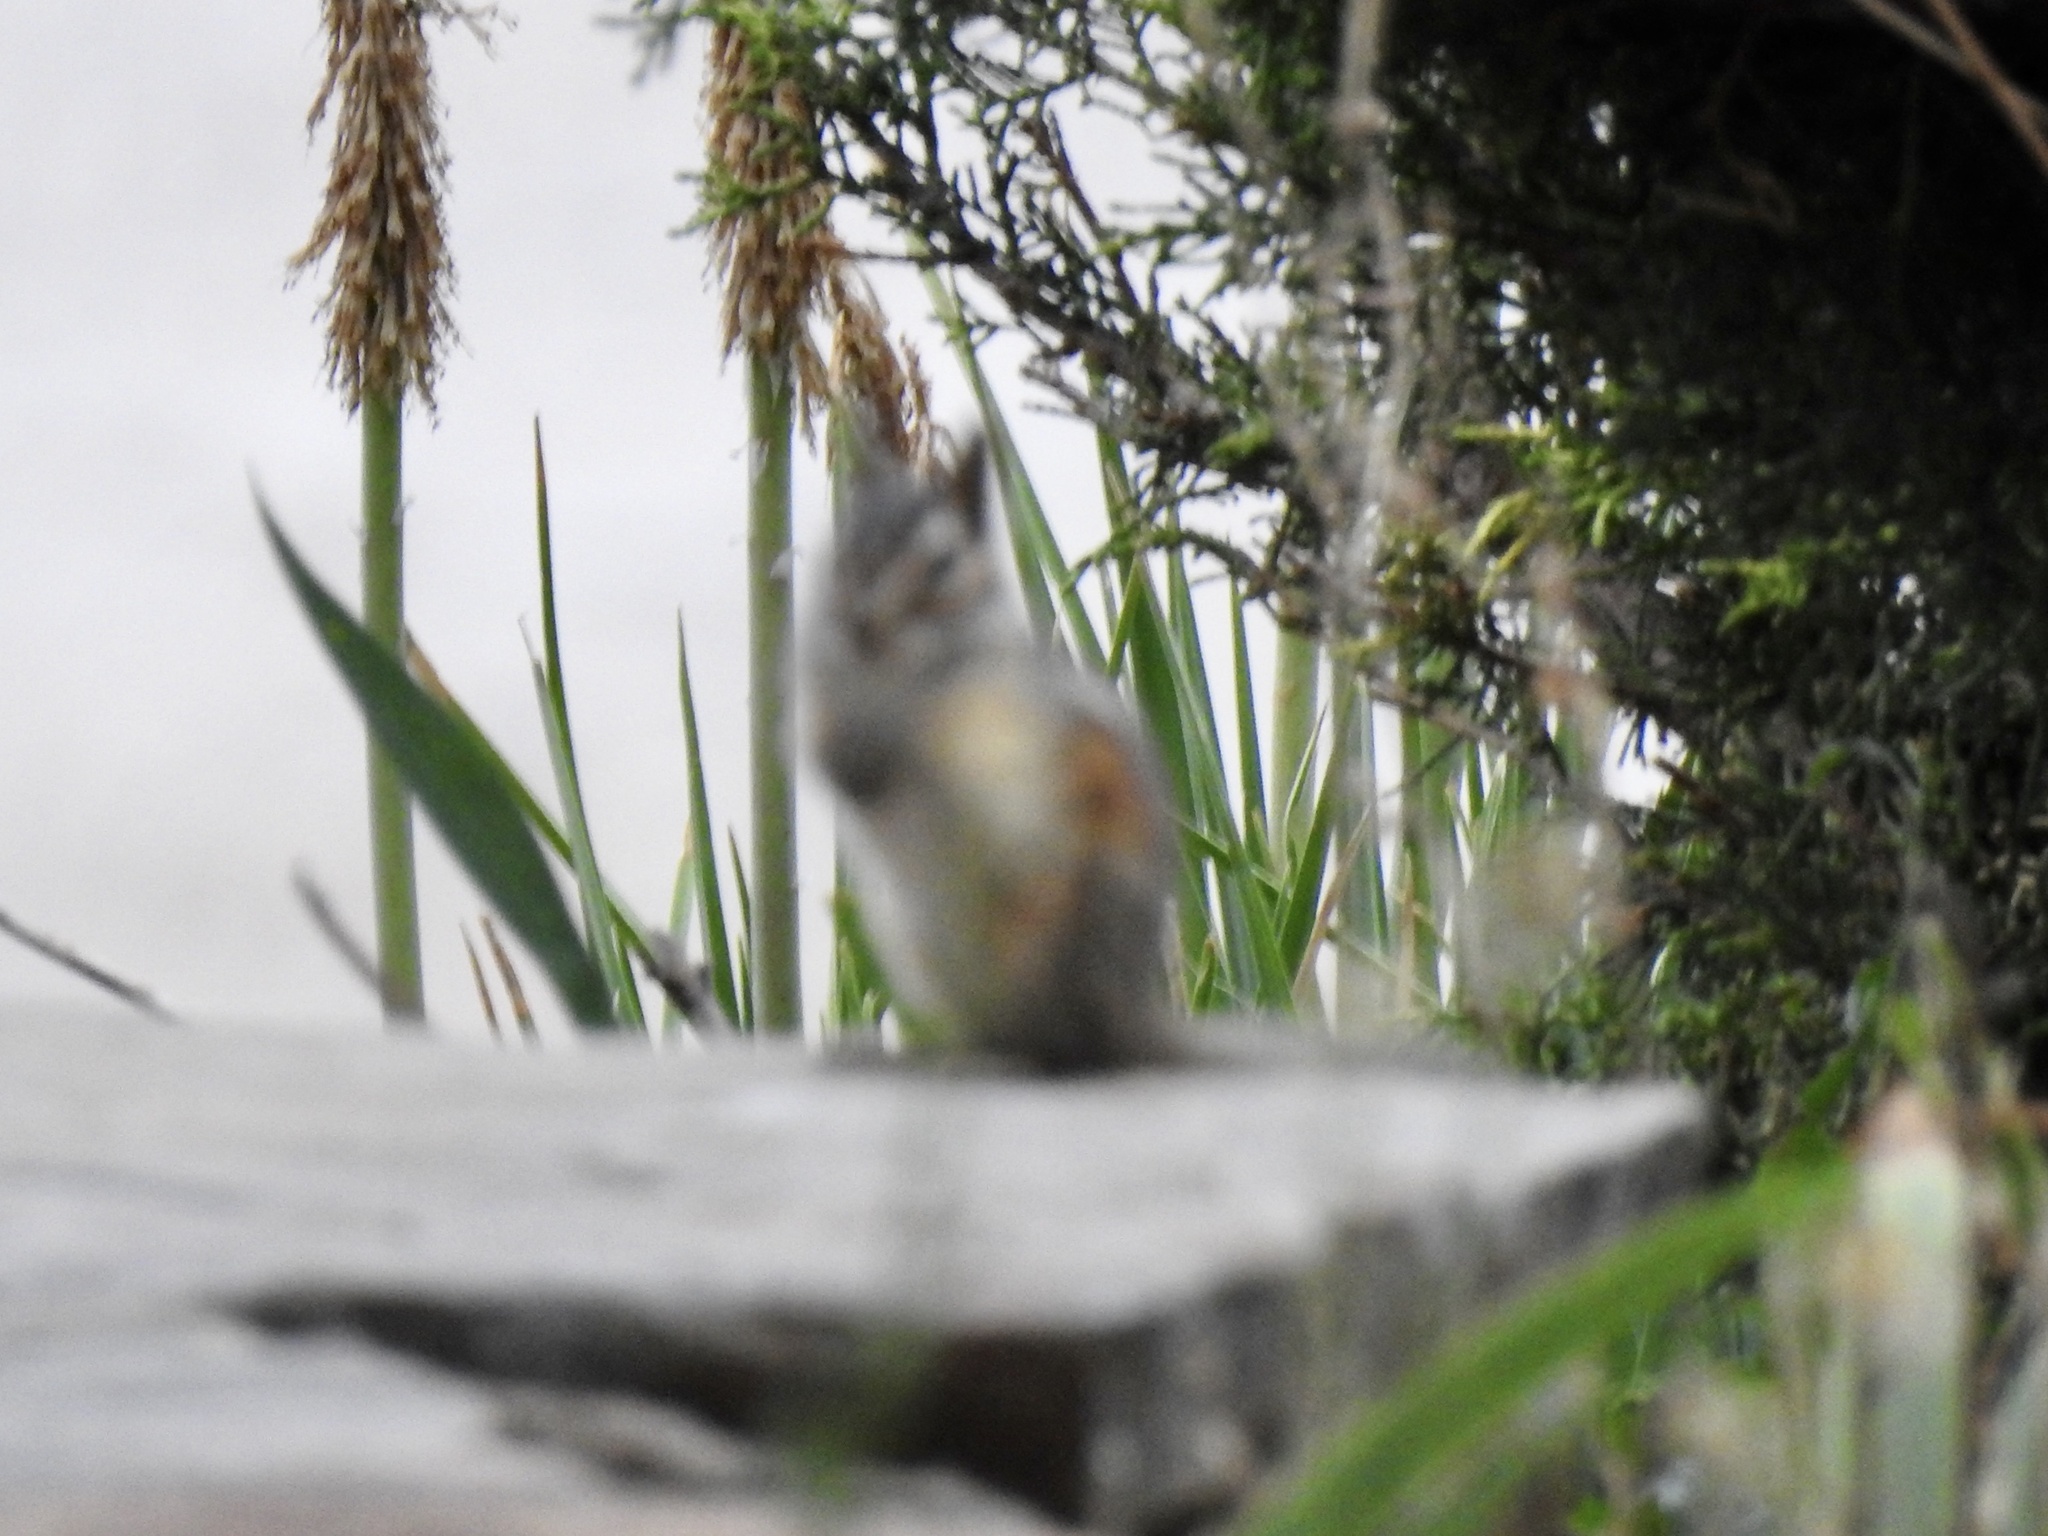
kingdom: Animalia
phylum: Chordata
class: Mammalia
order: Rodentia
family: Sciuridae
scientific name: Sciuridae
